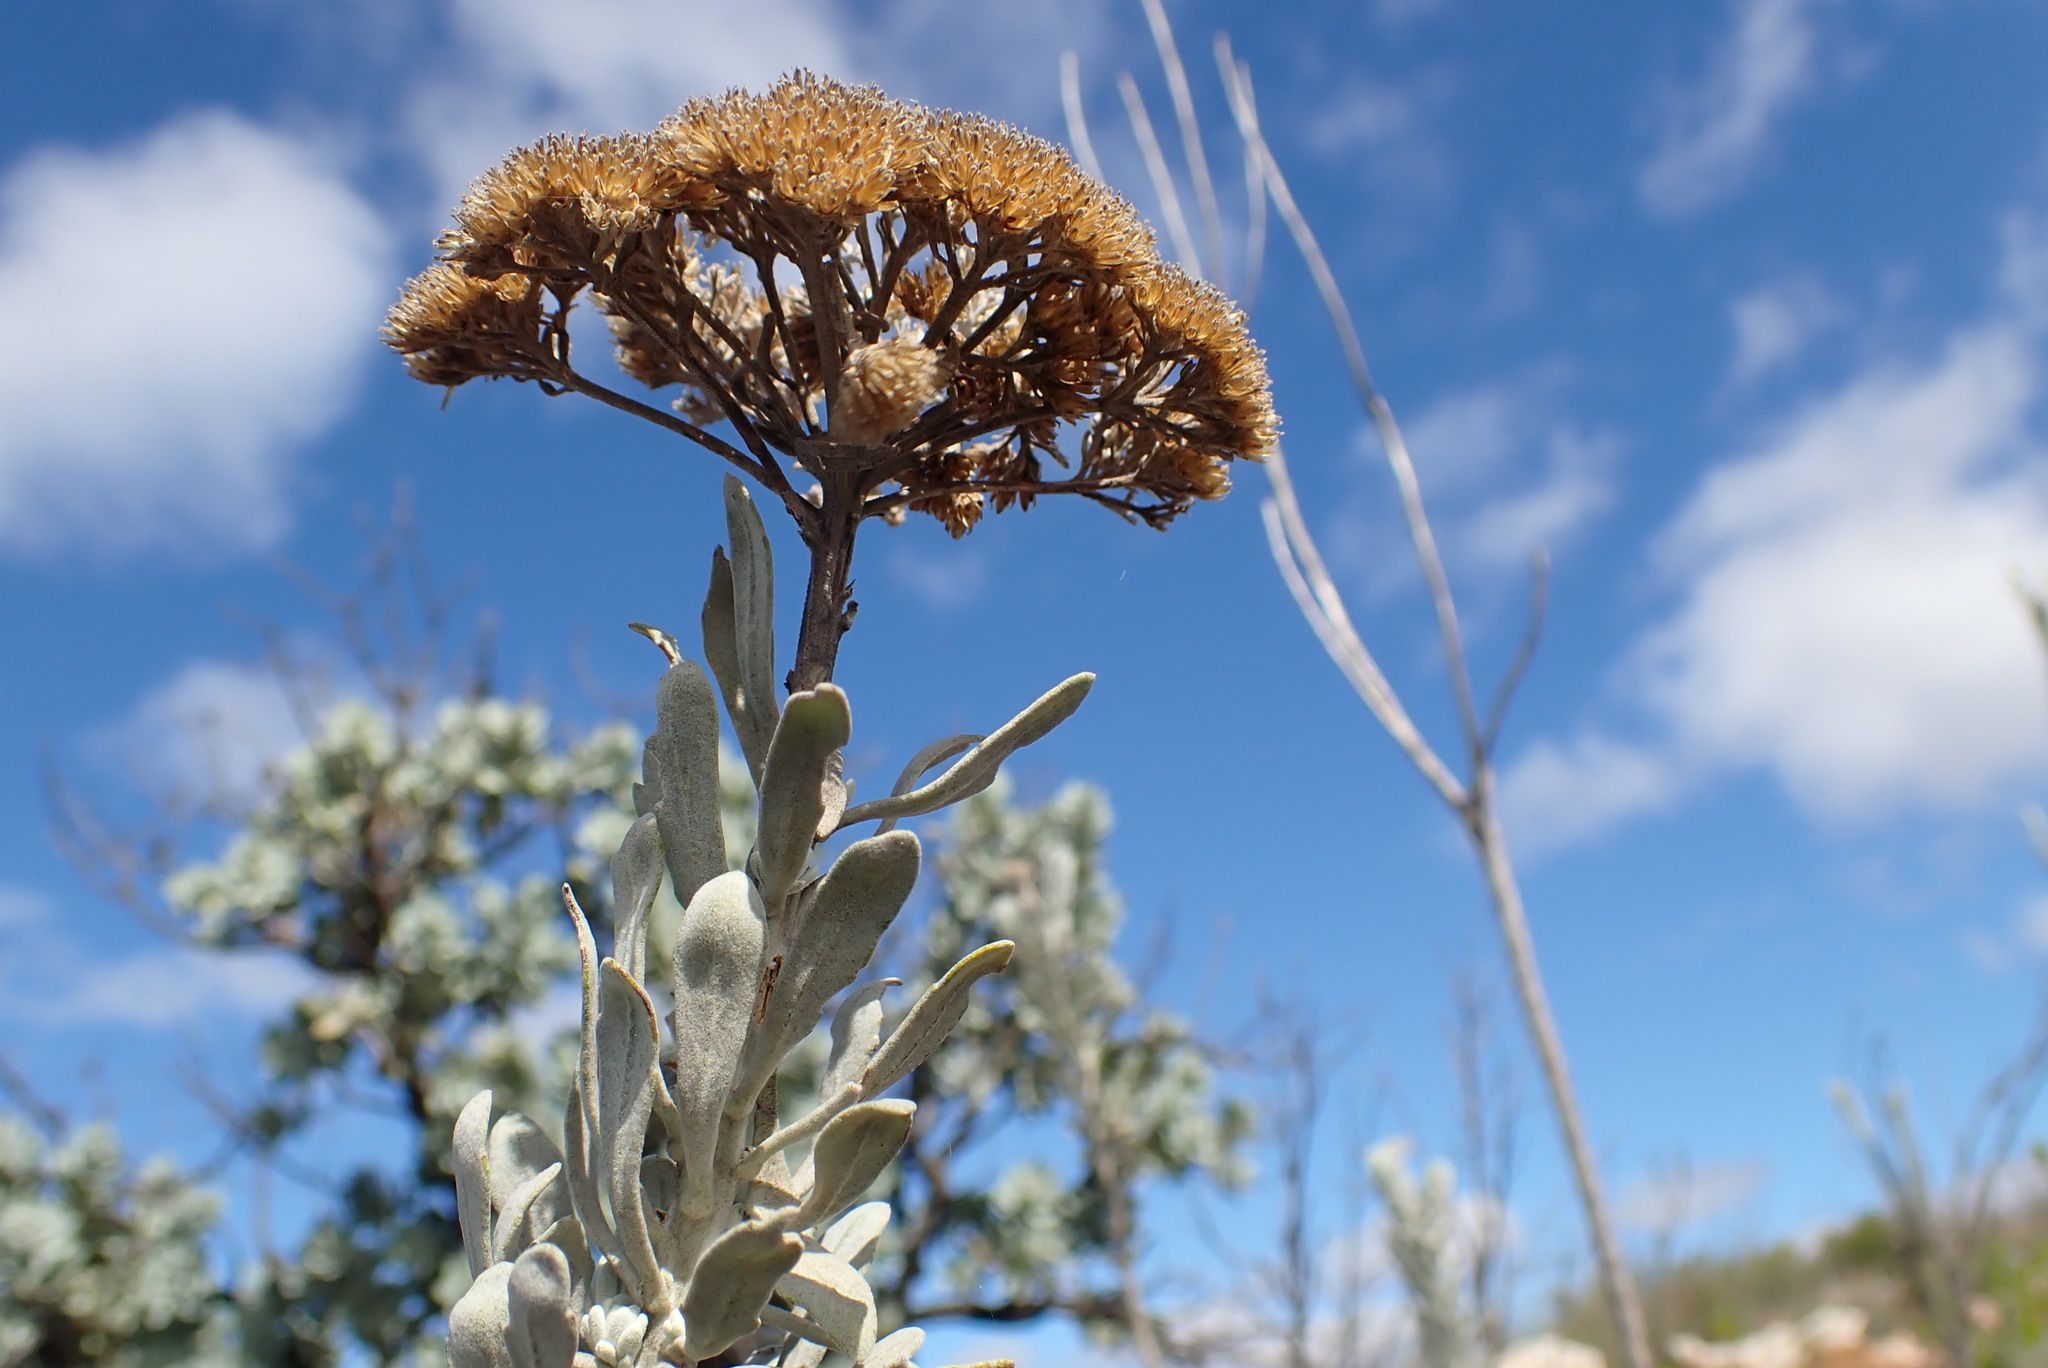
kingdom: Plantae
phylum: Tracheophyta
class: Magnoliopsida
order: Asterales
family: Asteraceae
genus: Athanasia
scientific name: Athanasia tomentosa
